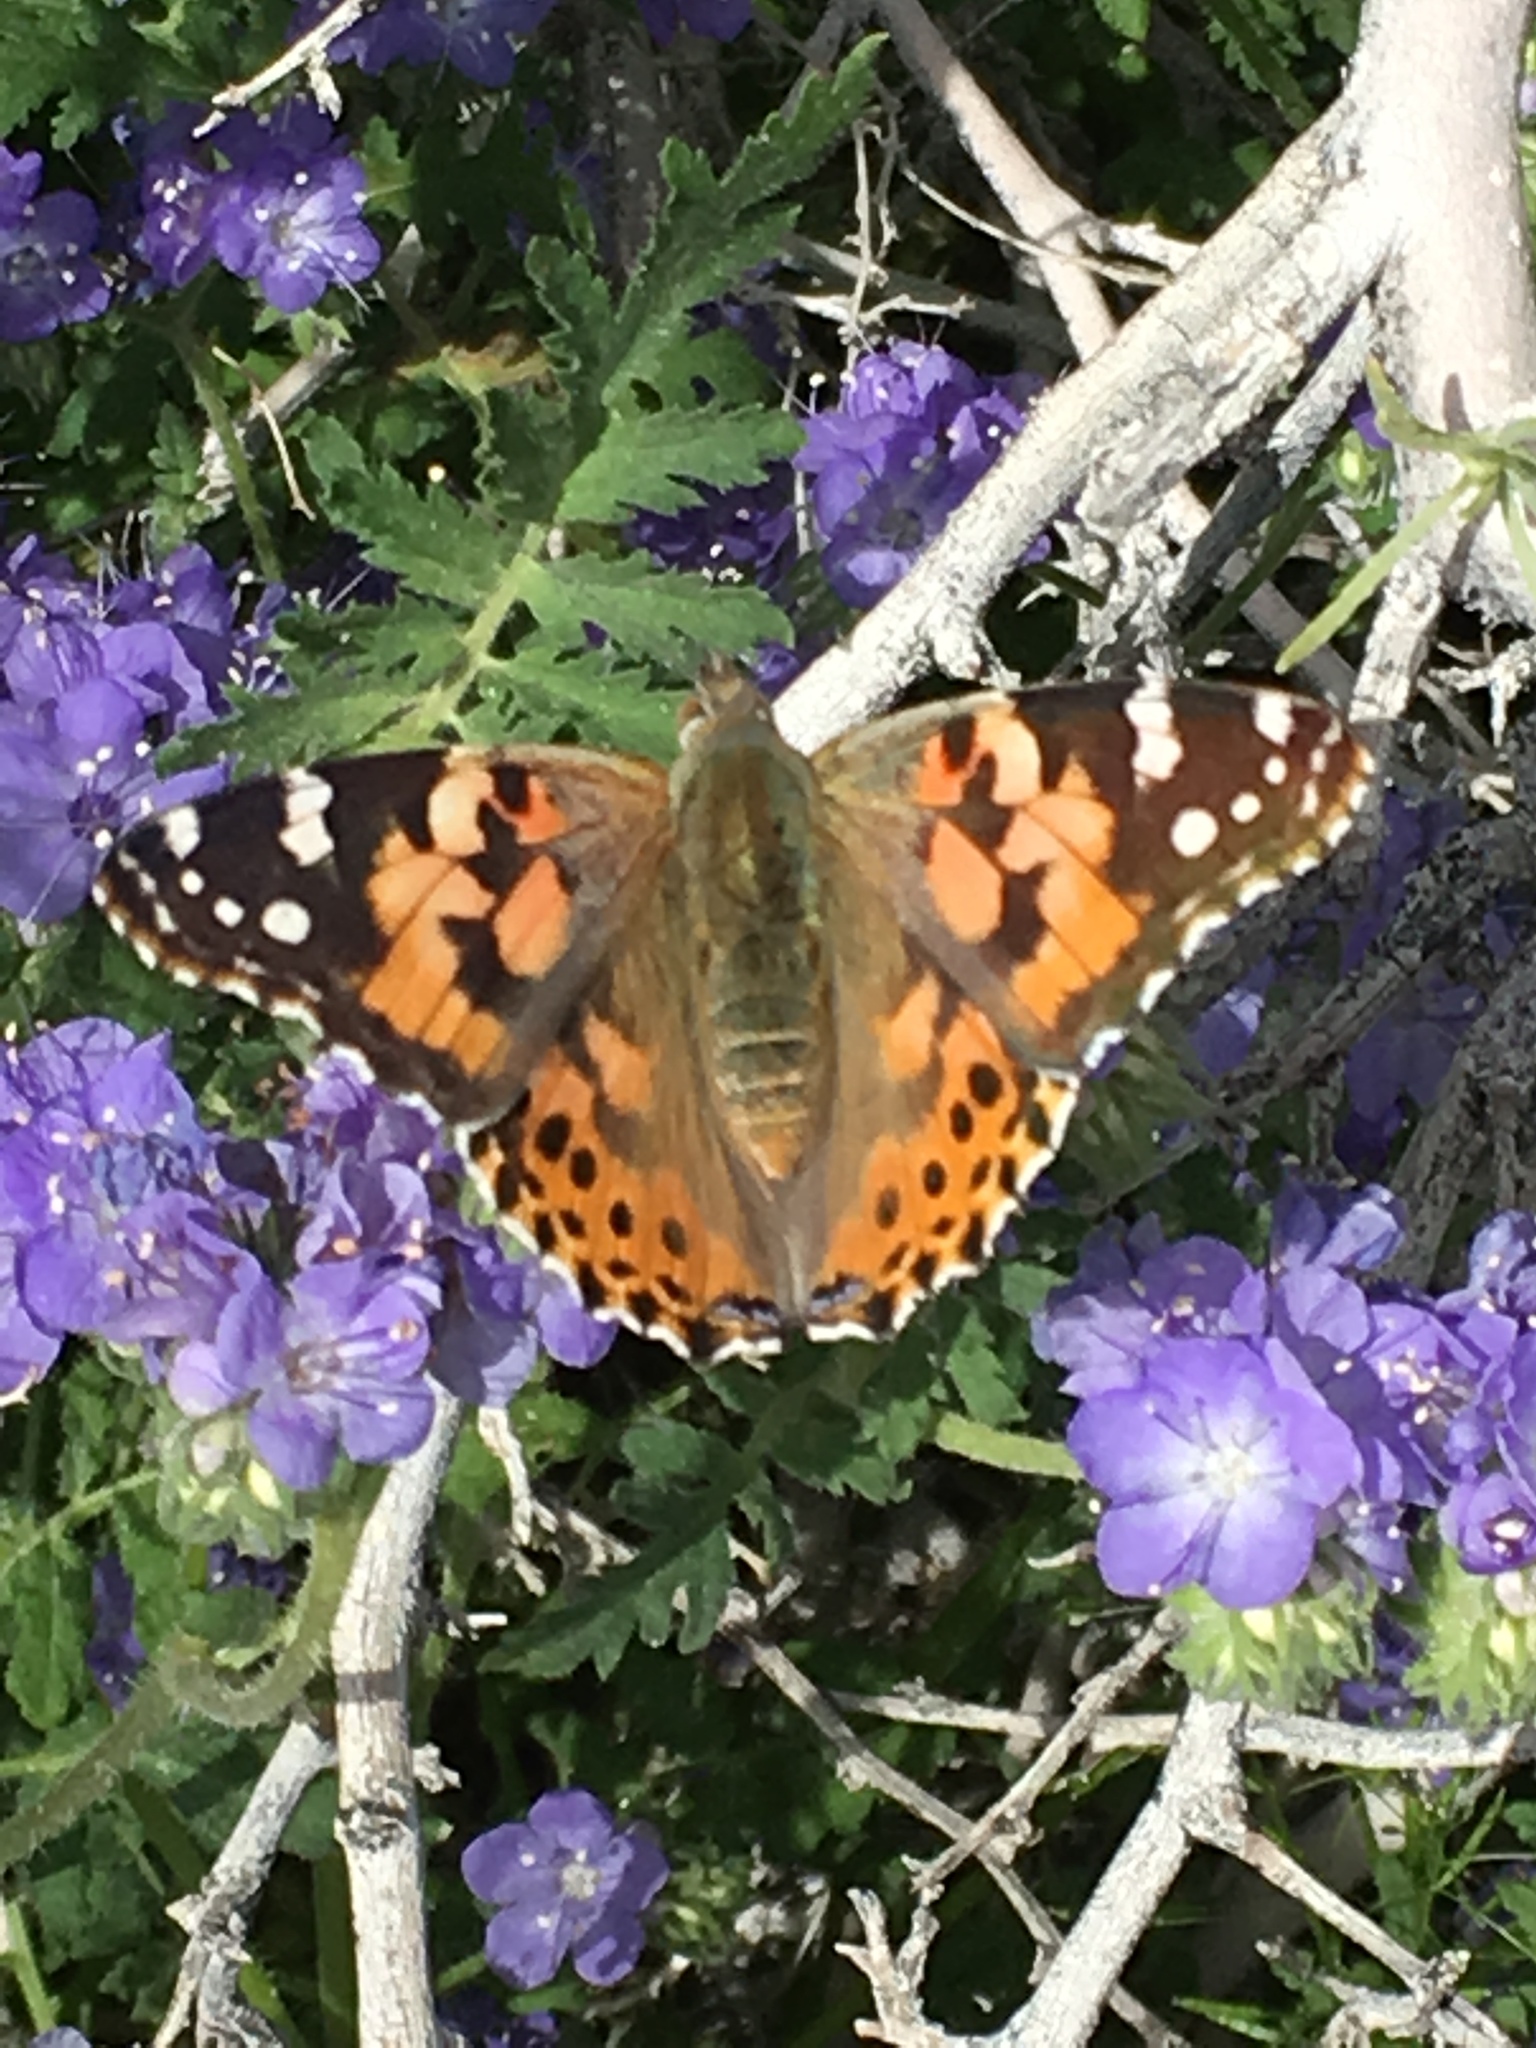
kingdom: Animalia
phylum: Arthropoda
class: Insecta
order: Lepidoptera
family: Nymphalidae
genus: Vanessa
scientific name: Vanessa cardui
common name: Painted lady
